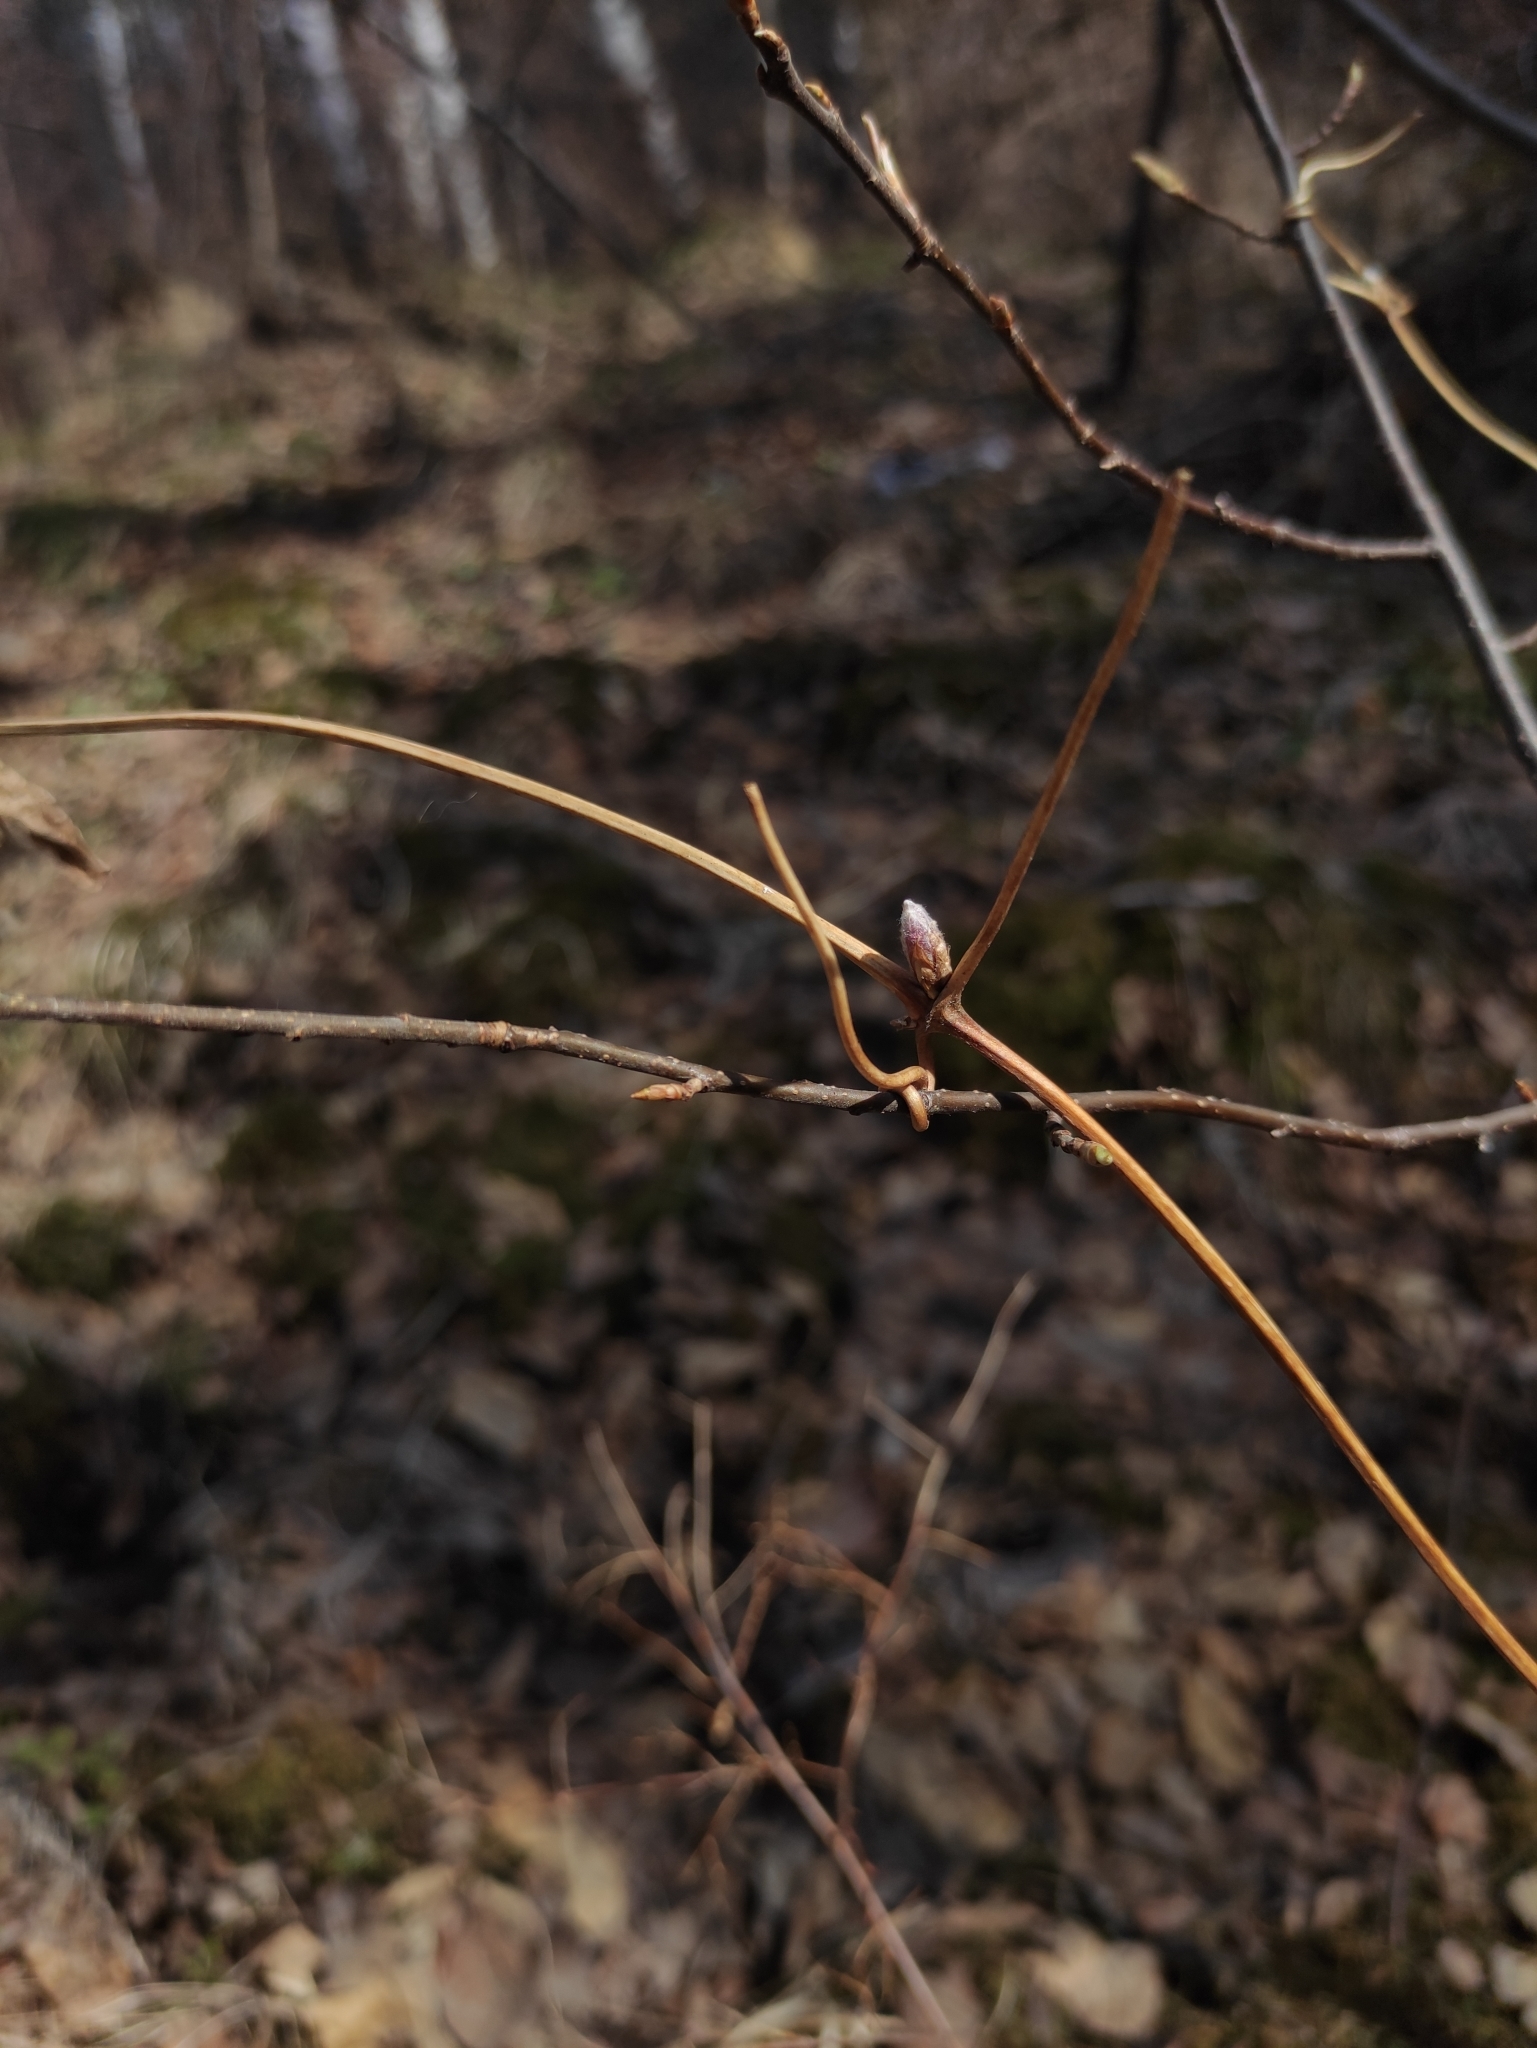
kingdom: Plantae
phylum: Tracheophyta
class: Magnoliopsida
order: Ranunculales
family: Ranunculaceae
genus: Clematis
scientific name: Clematis sibirica
